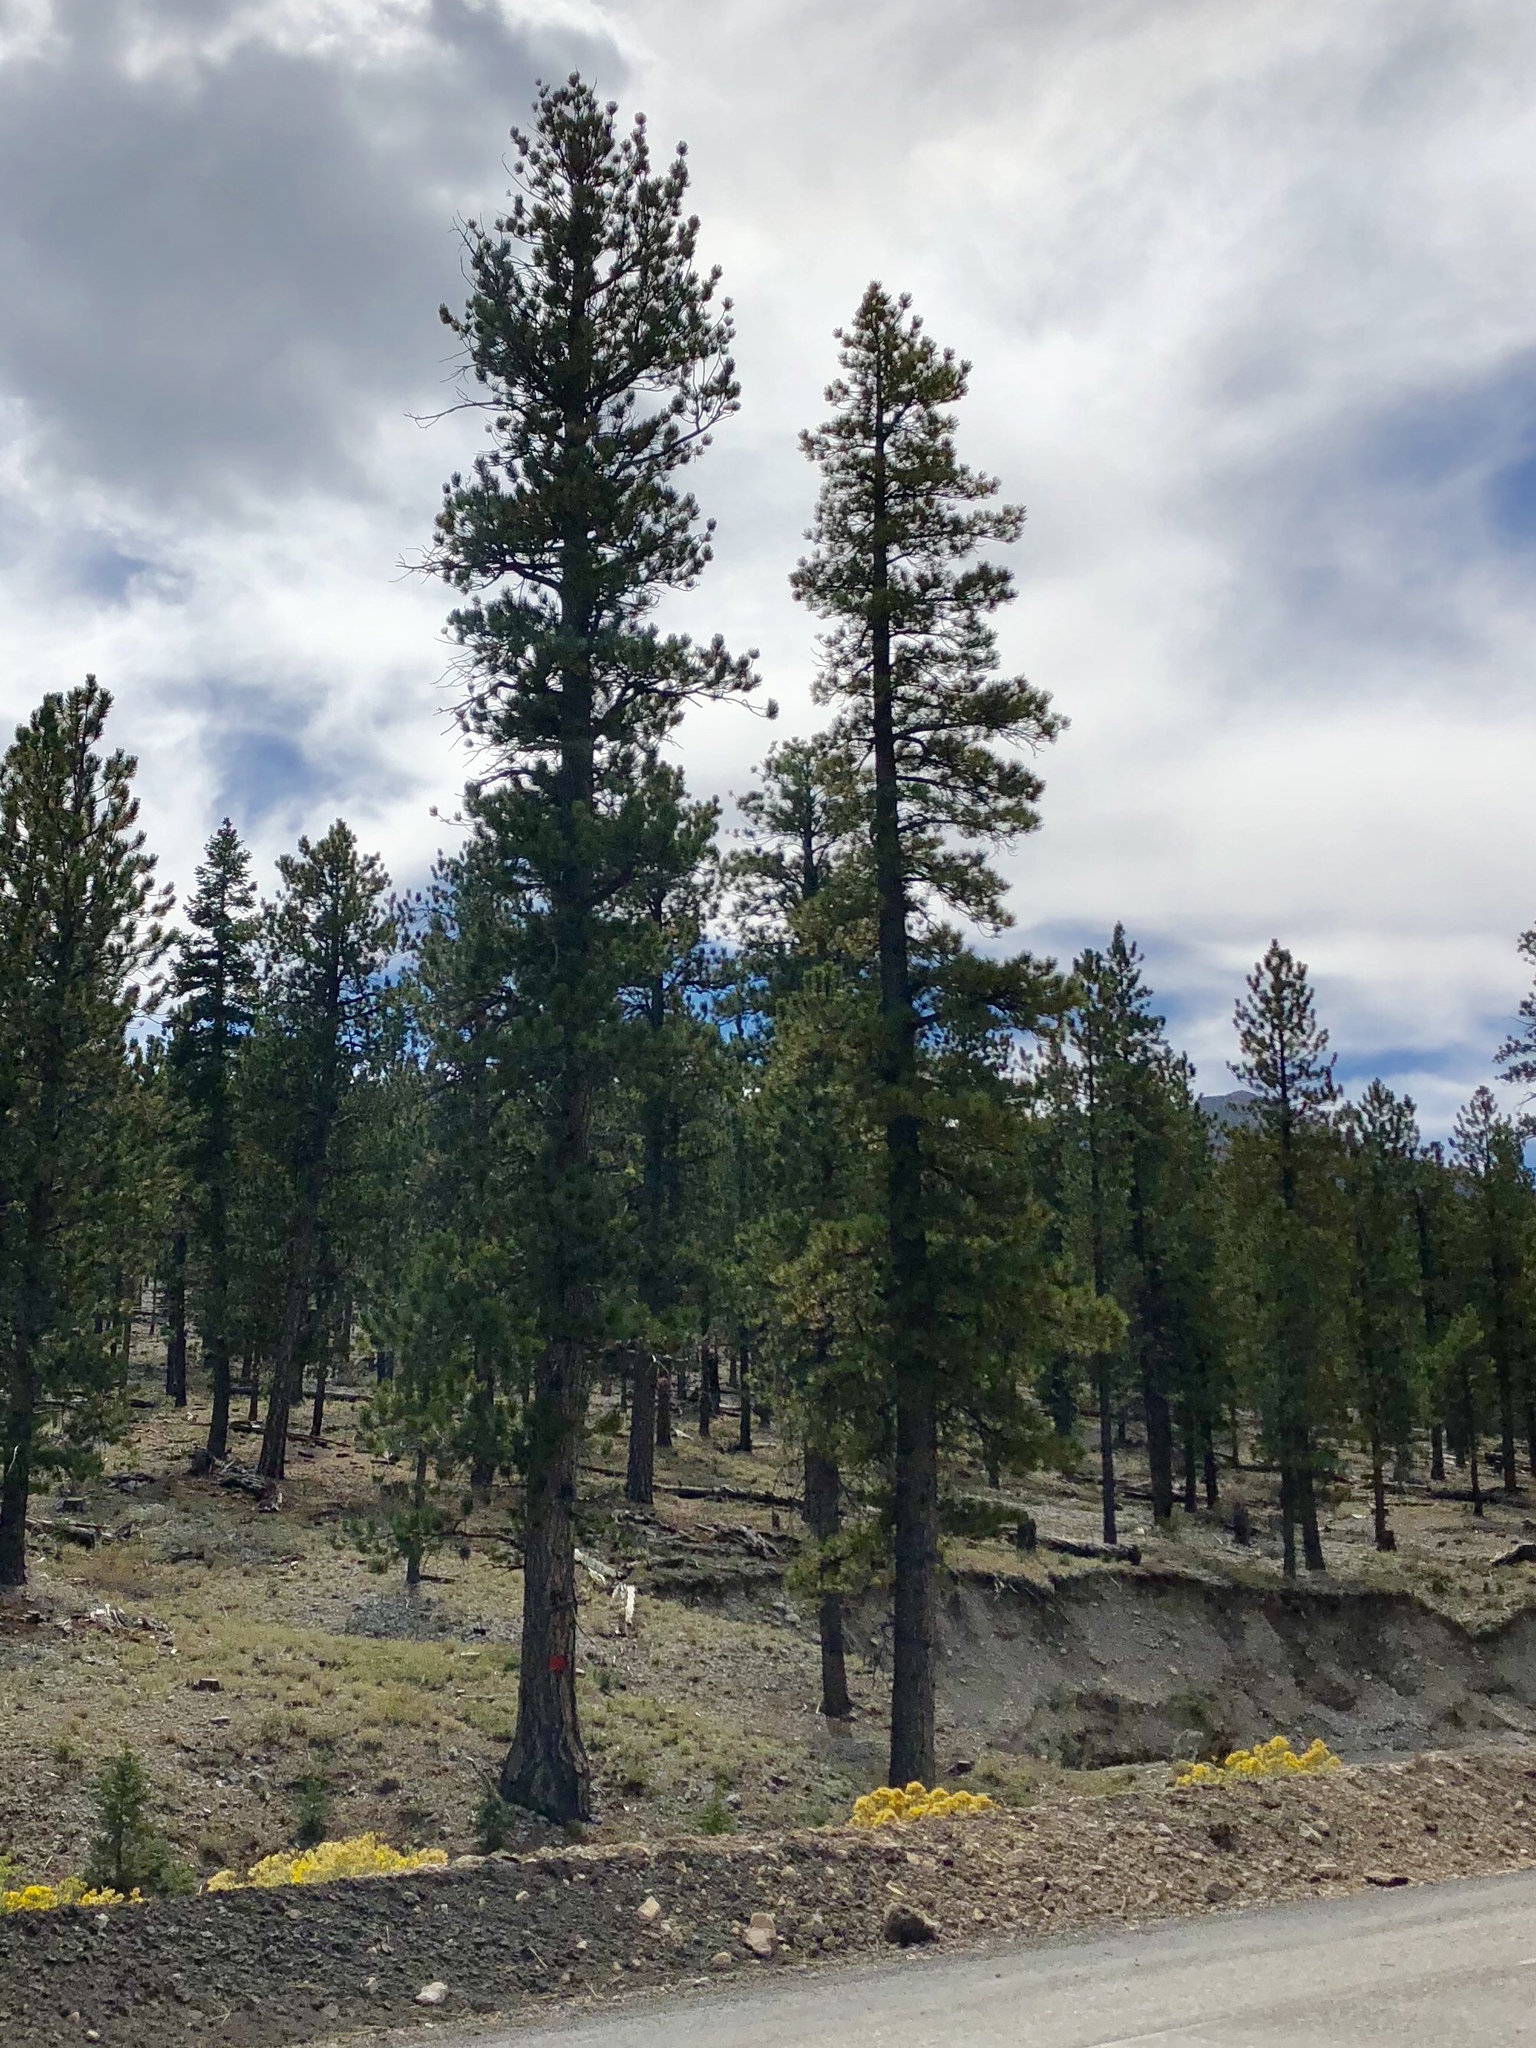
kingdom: Plantae
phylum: Tracheophyta
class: Pinopsida
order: Pinales
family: Pinaceae
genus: Pinus
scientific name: Pinus ponderosa
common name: Western yellow-pine
